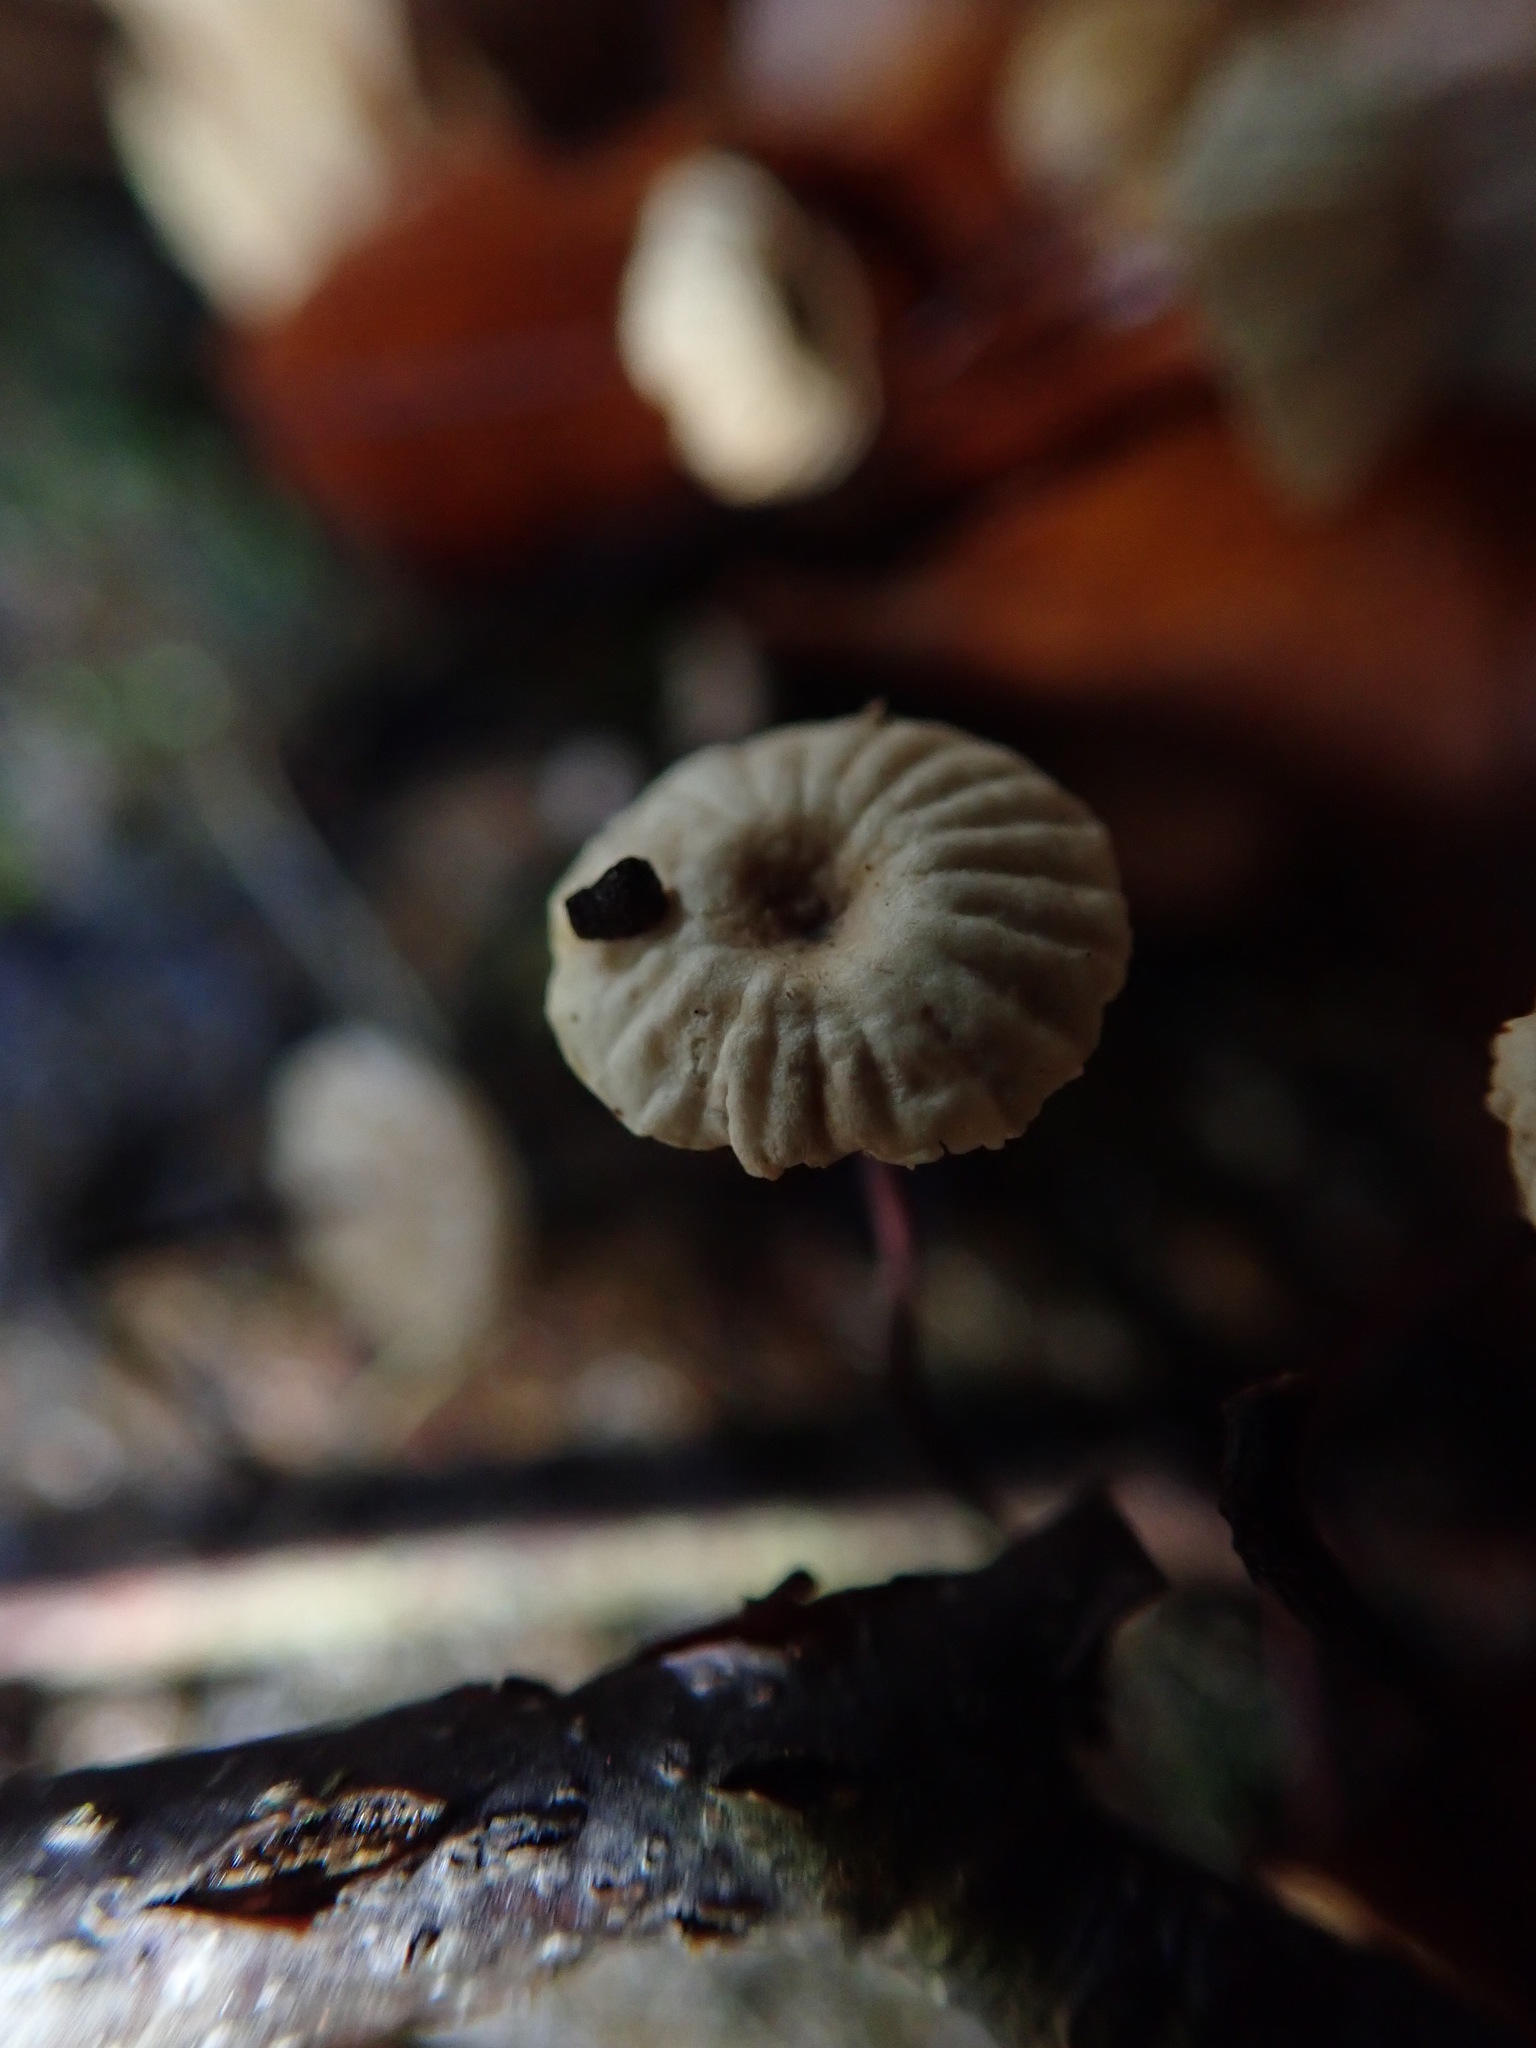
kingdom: Fungi
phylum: Basidiomycota
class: Agaricomycetes
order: Agaricales
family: Marasmiaceae
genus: Marasmius
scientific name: Marasmius rotula
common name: Collared parachute
